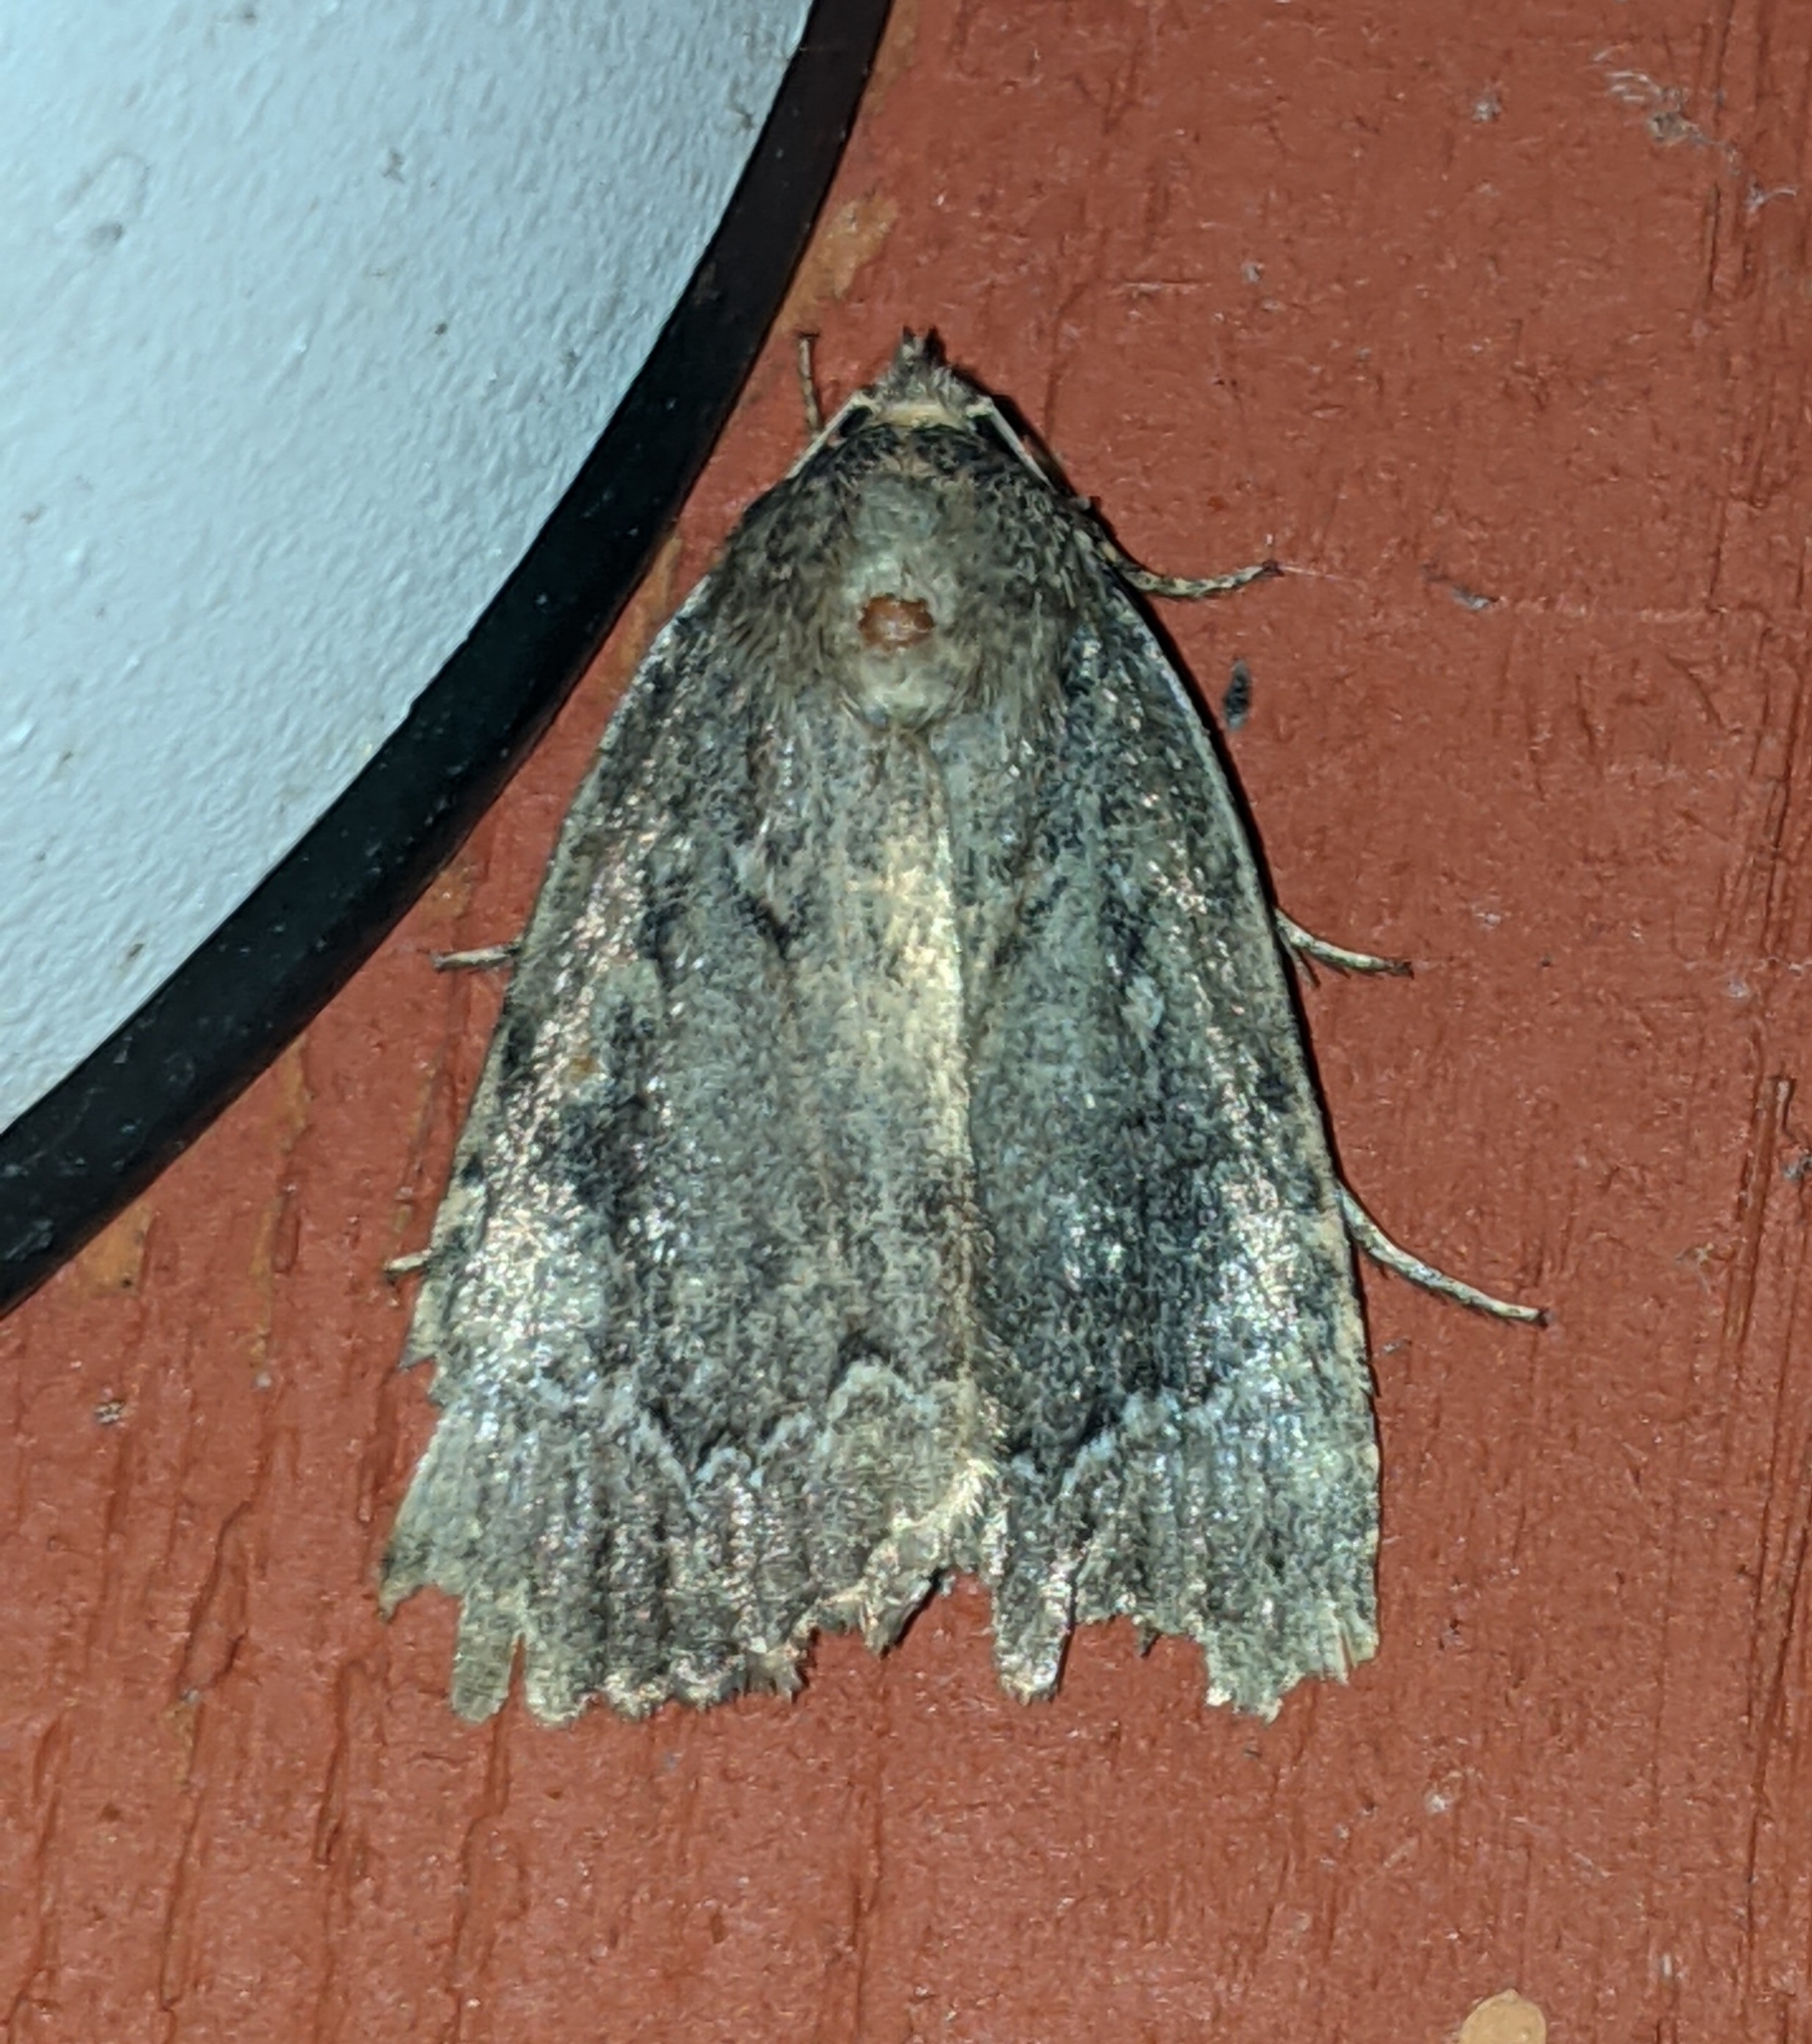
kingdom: Animalia
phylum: Arthropoda
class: Insecta
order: Lepidoptera
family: Noctuidae
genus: Amphipyra
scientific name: Amphipyra pyramidoides
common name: American copper underwing
